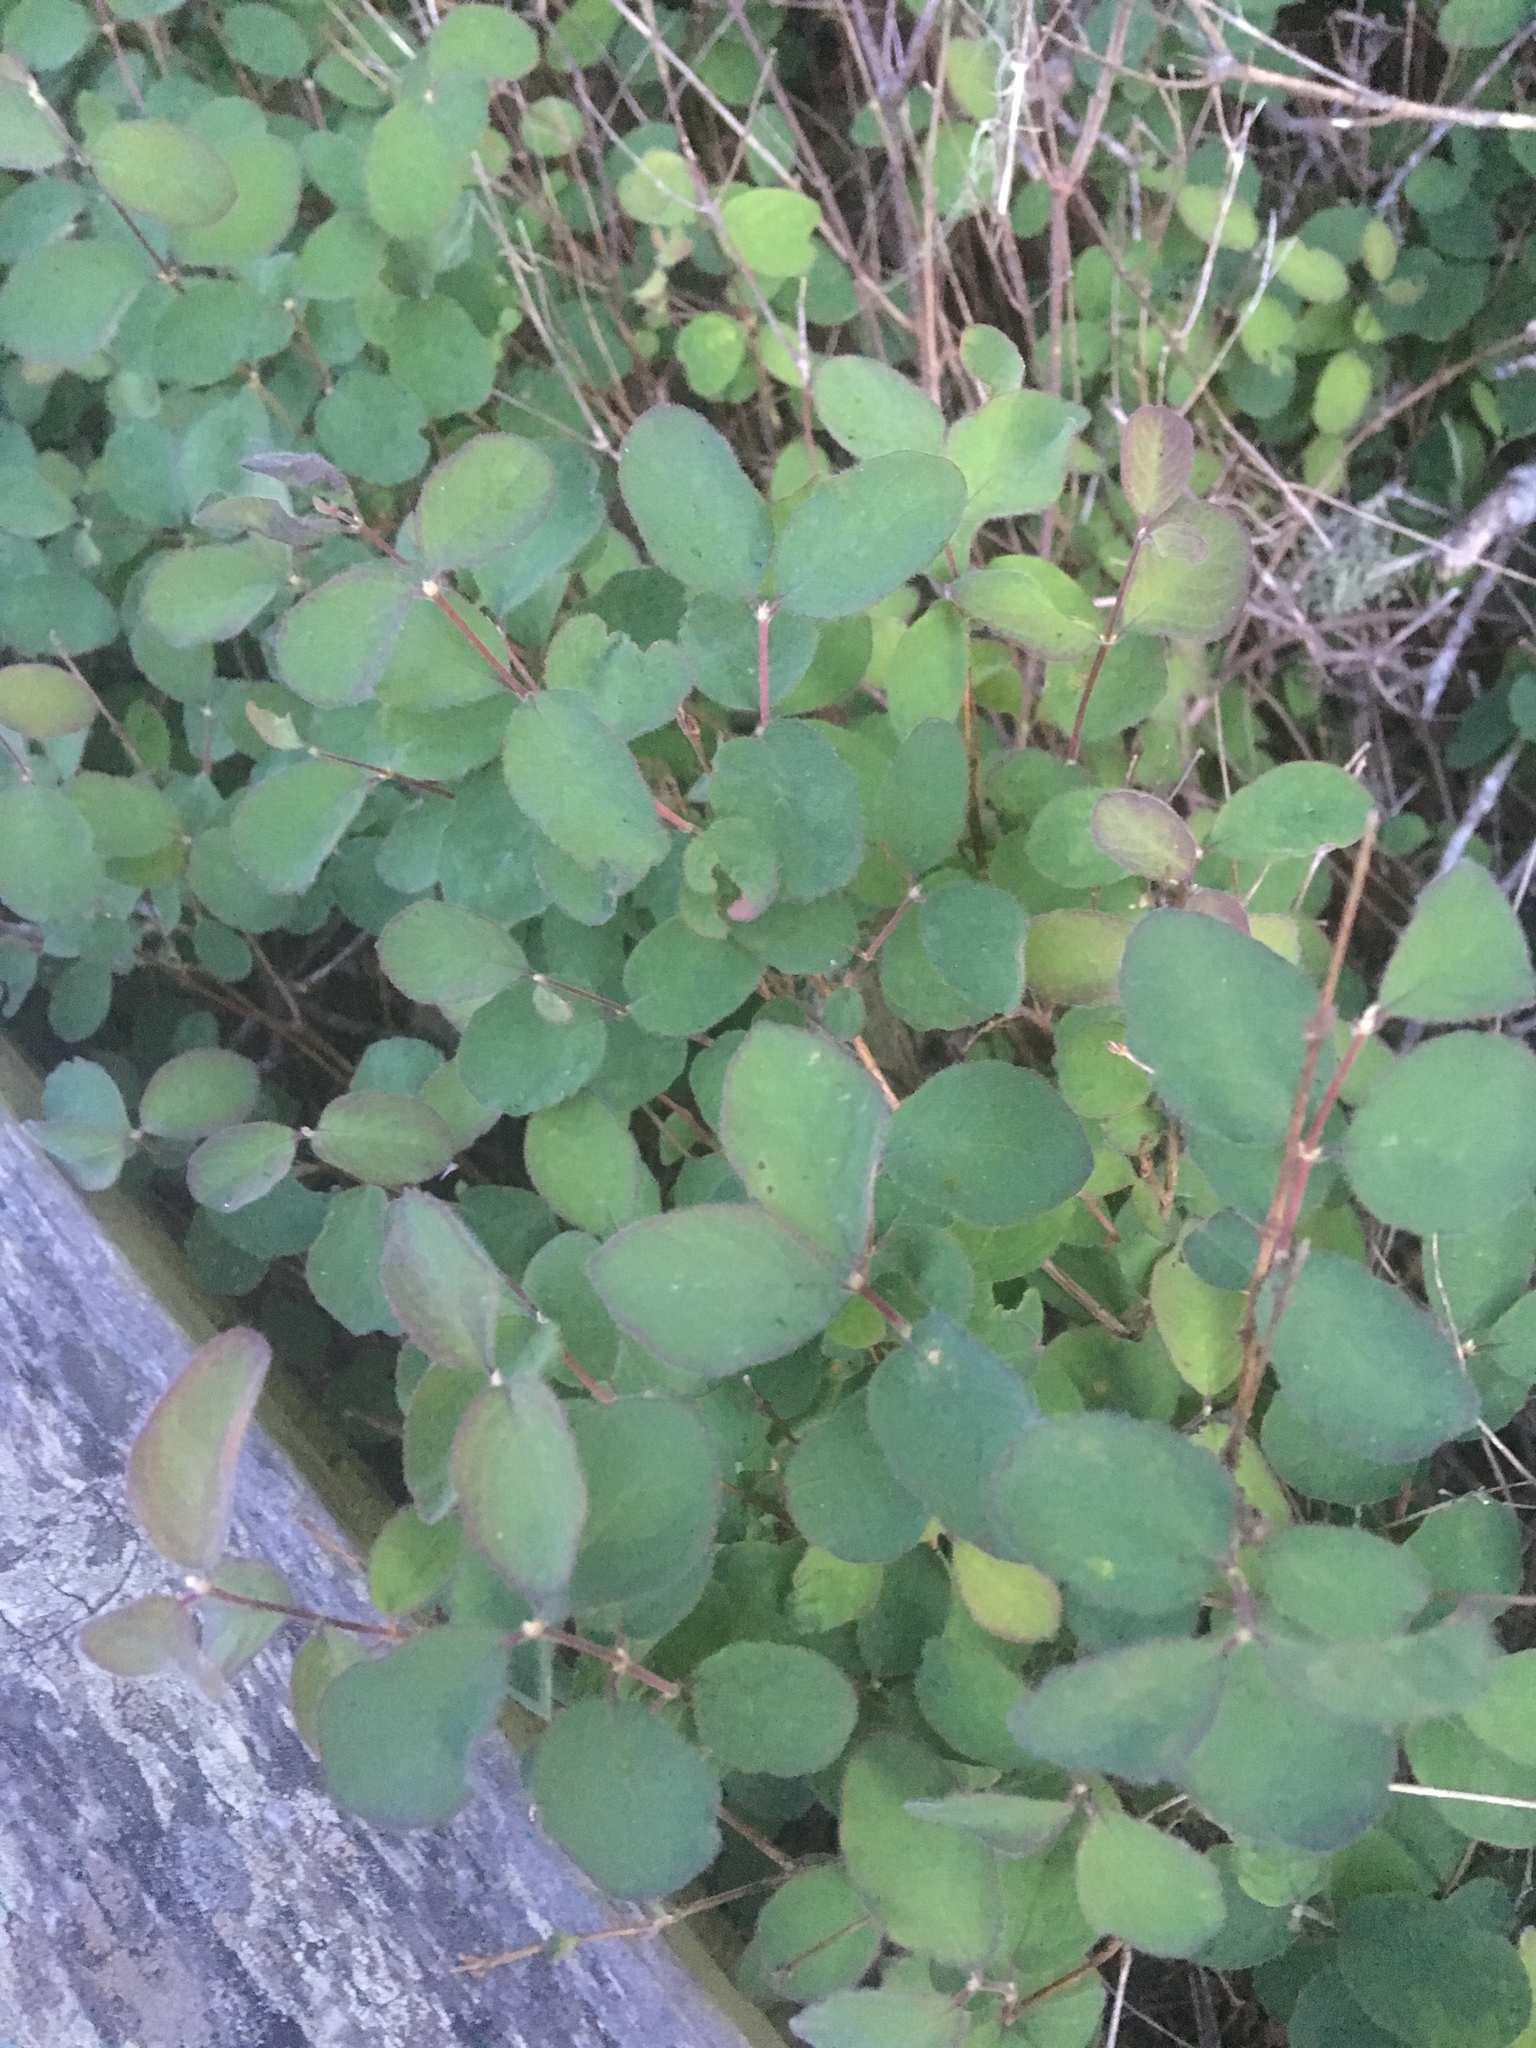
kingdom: Plantae
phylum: Tracheophyta
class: Magnoliopsida
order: Dipsacales
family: Caprifoliaceae
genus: Symphoricarpos
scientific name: Symphoricarpos albus
